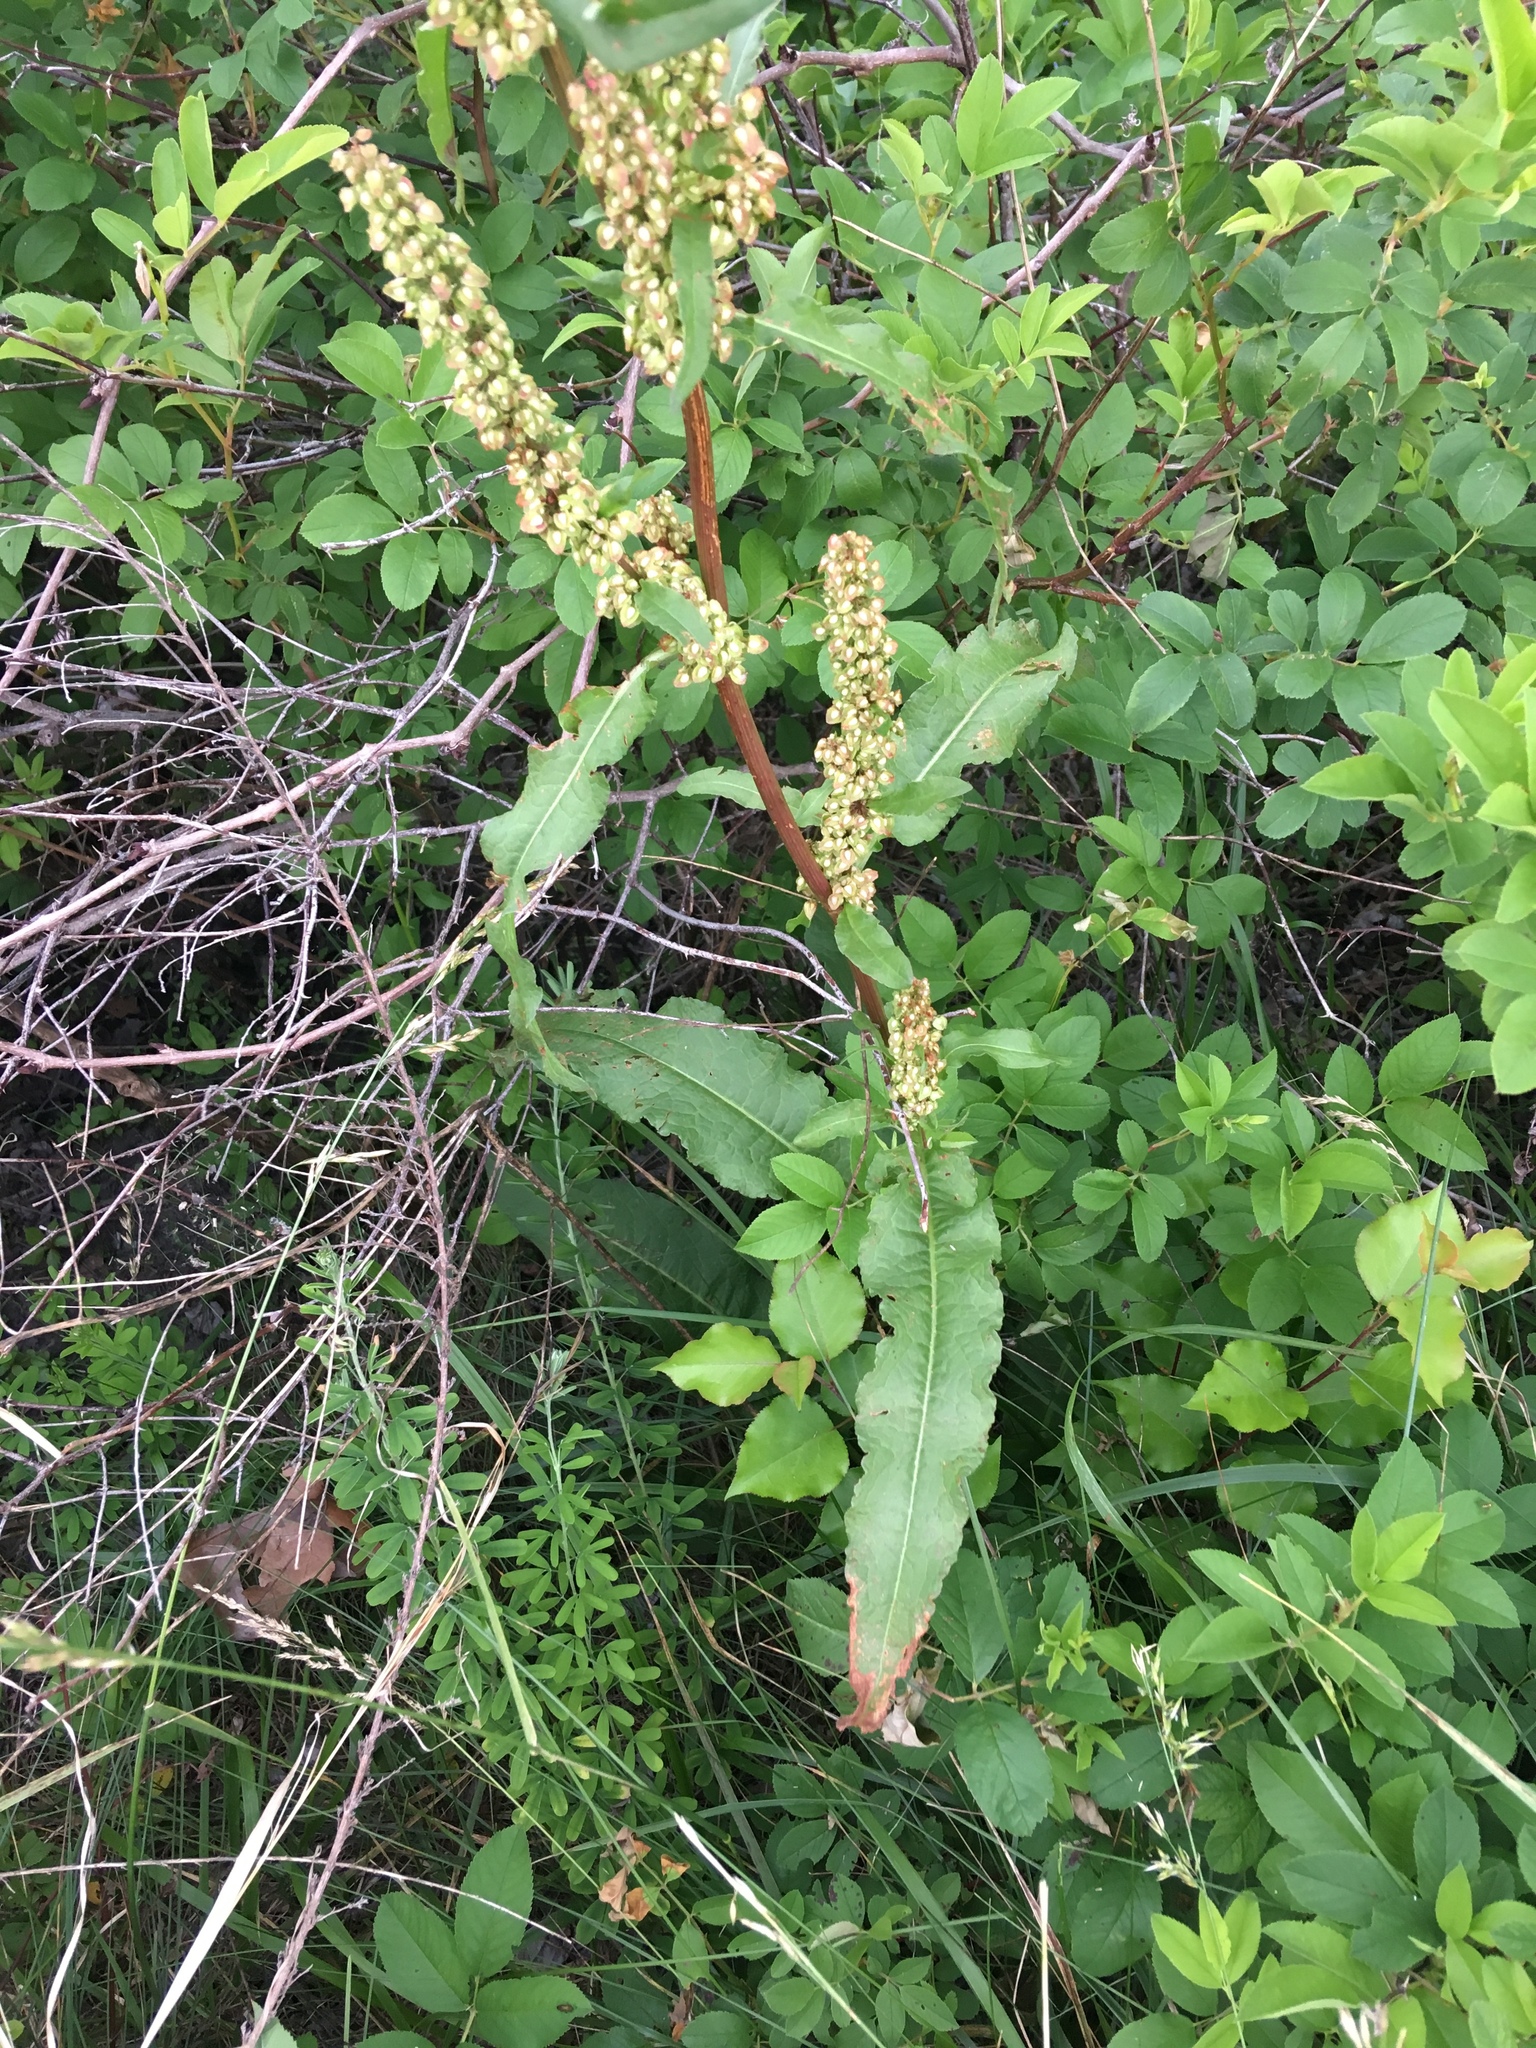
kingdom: Plantae
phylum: Tracheophyta
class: Magnoliopsida
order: Caryophyllales
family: Polygonaceae
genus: Rumex
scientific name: Rumex crispus
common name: Curled dock
